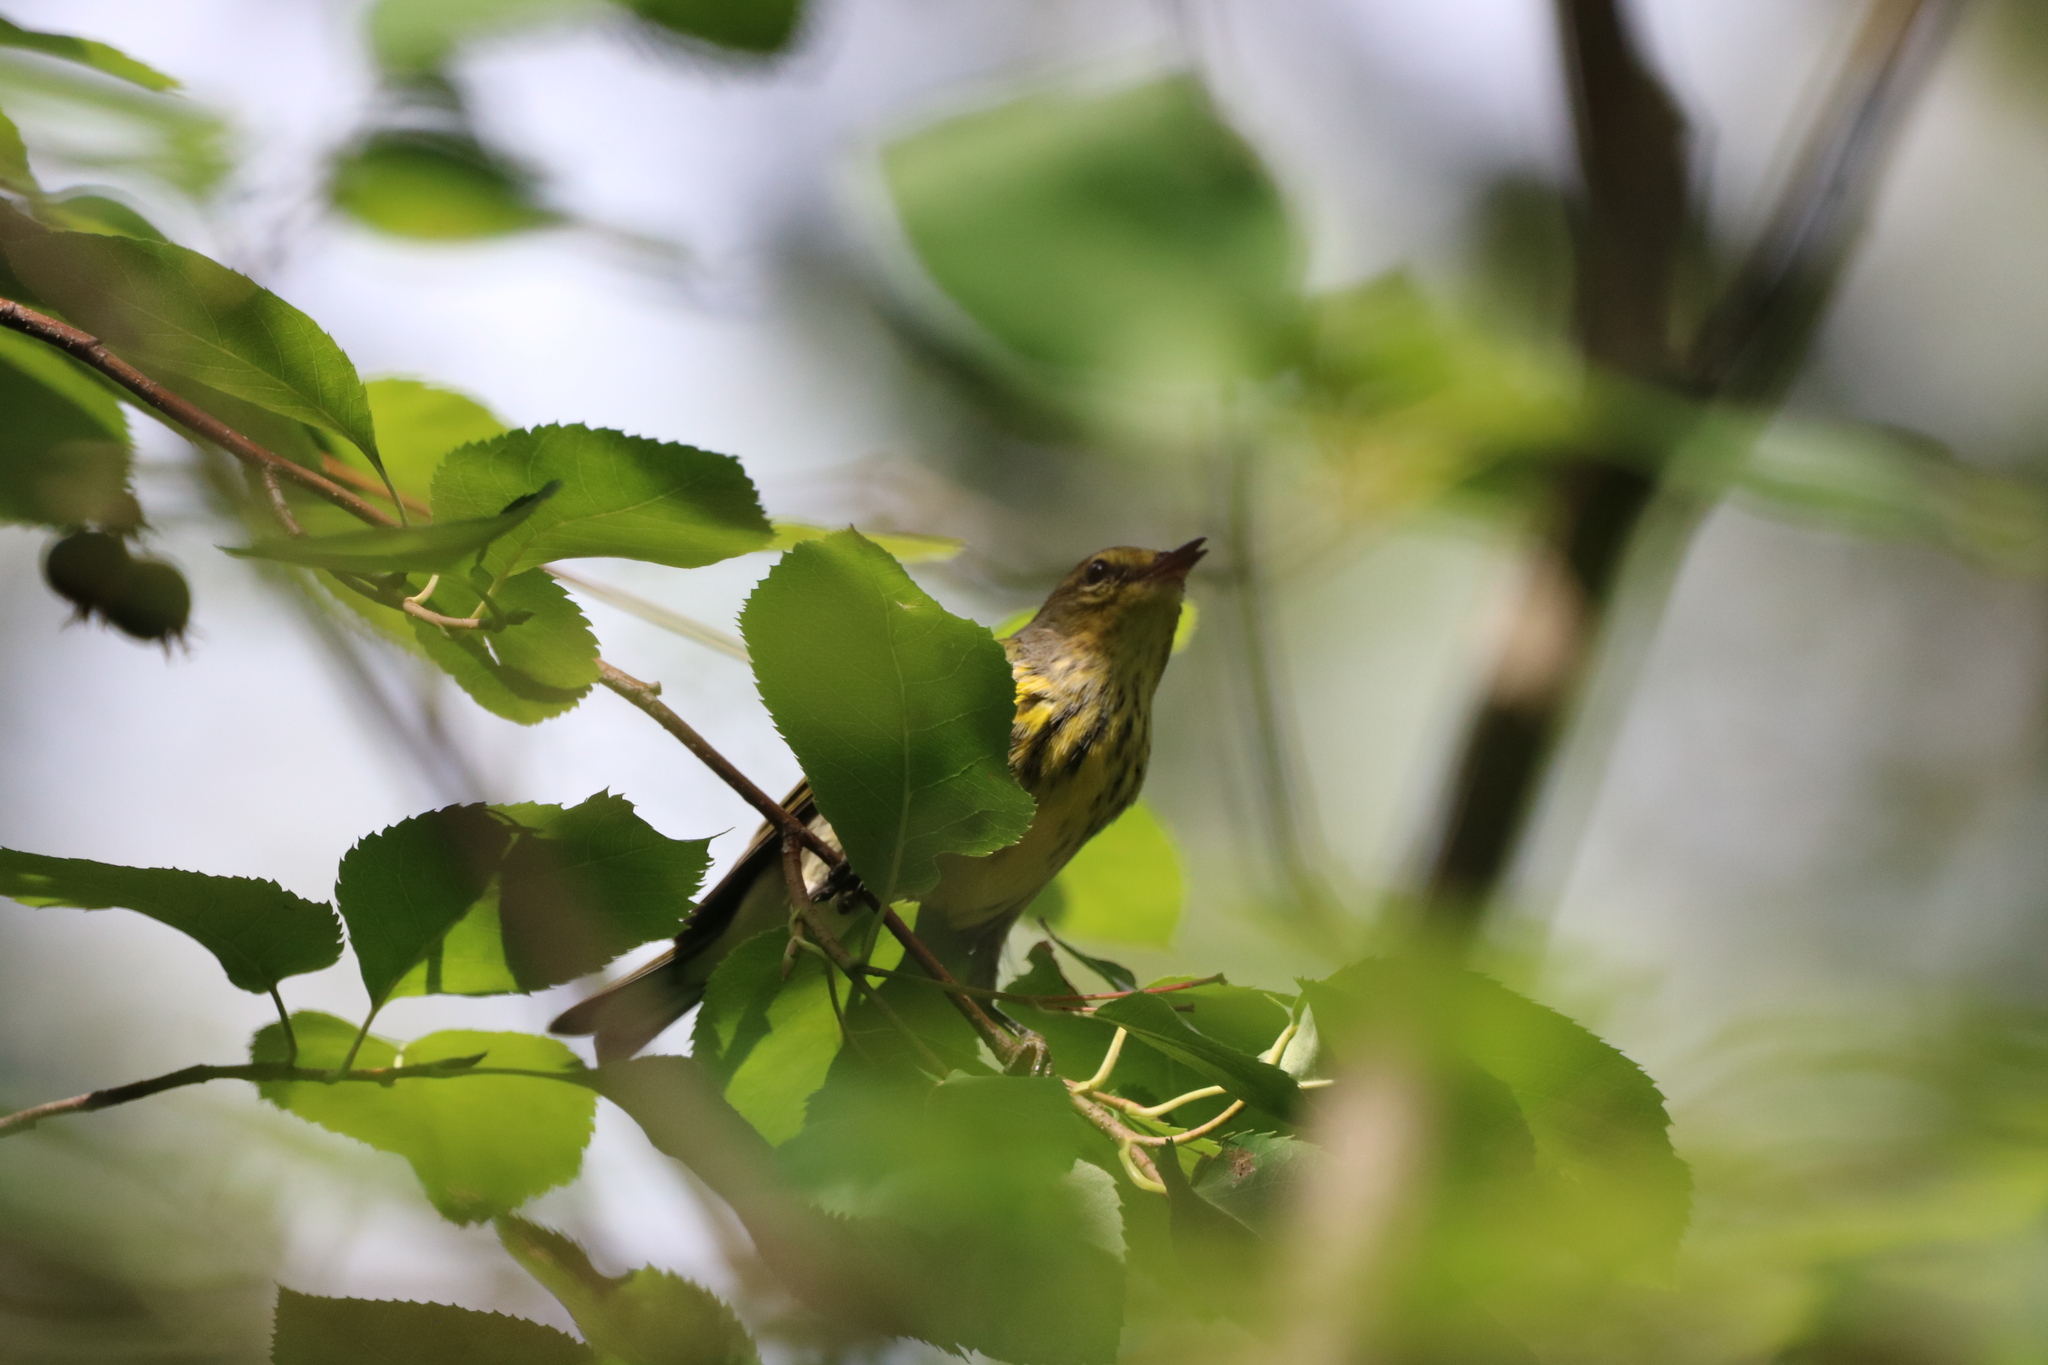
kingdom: Animalia
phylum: Chordata
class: Aves
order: Passeriformes
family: Parulidae
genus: Setophaga
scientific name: Setophaga tigrina
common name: Cape may warbler
